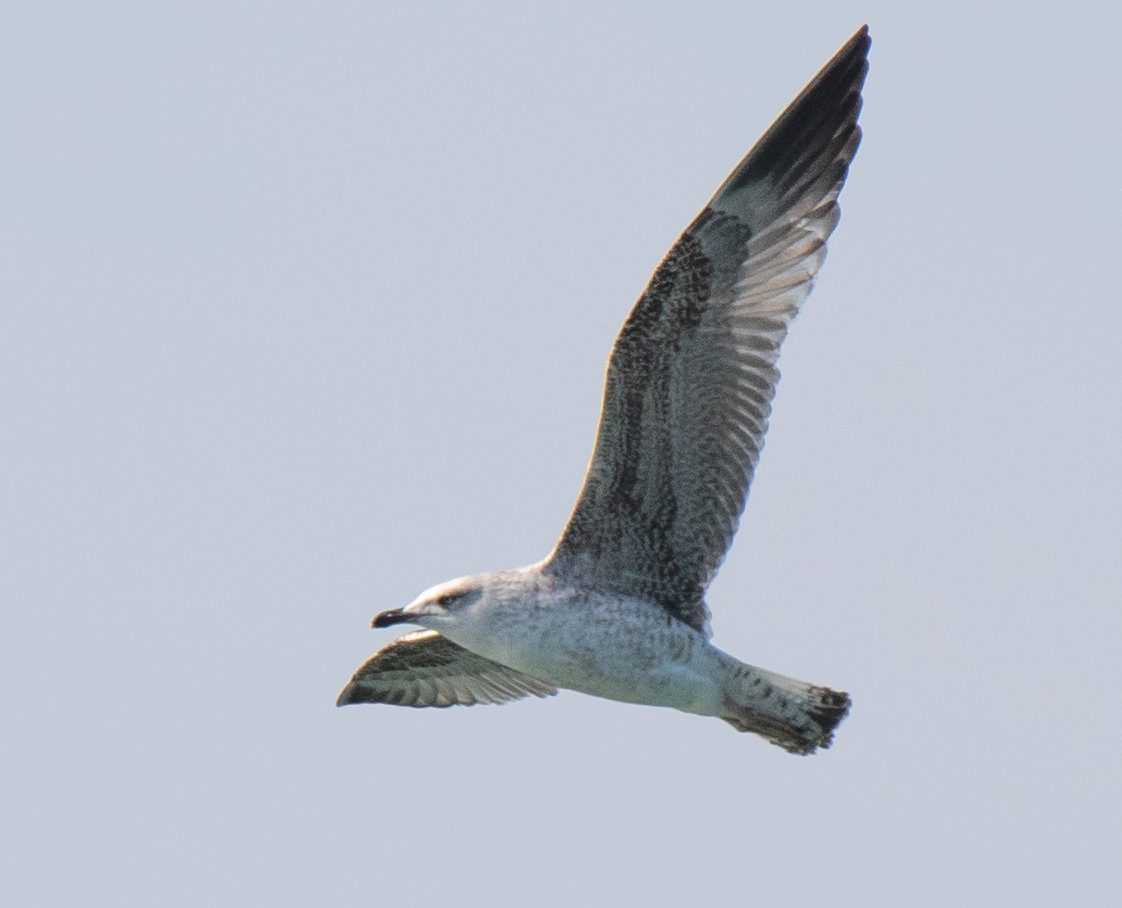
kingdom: Animalia
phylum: Chordata
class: Aves
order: Charadriiformes
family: Laridae
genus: Larus
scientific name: Larus michahellis
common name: Yellow-legged gull
